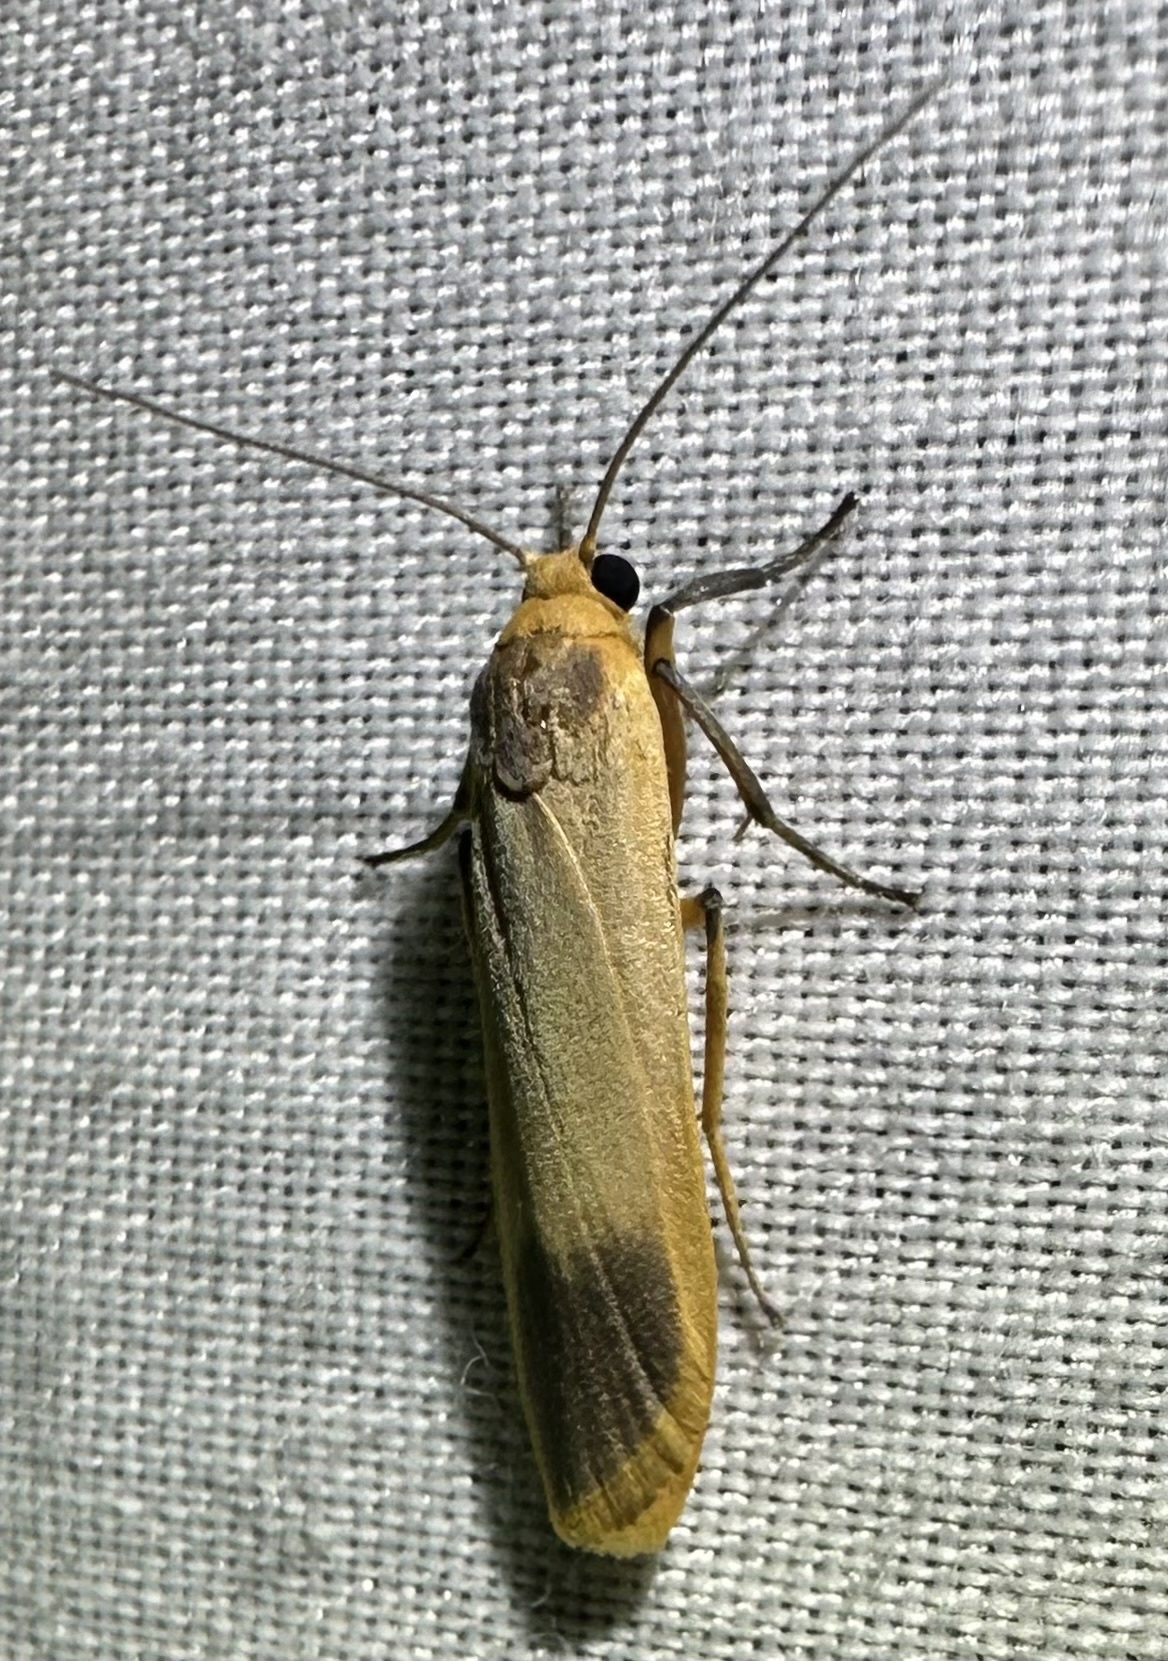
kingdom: Animalia
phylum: Arthropoda
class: Insecta
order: Lepidoptera
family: Erebidae
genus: Pseudochromatosia
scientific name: Pseudochromatosia nigrapex
